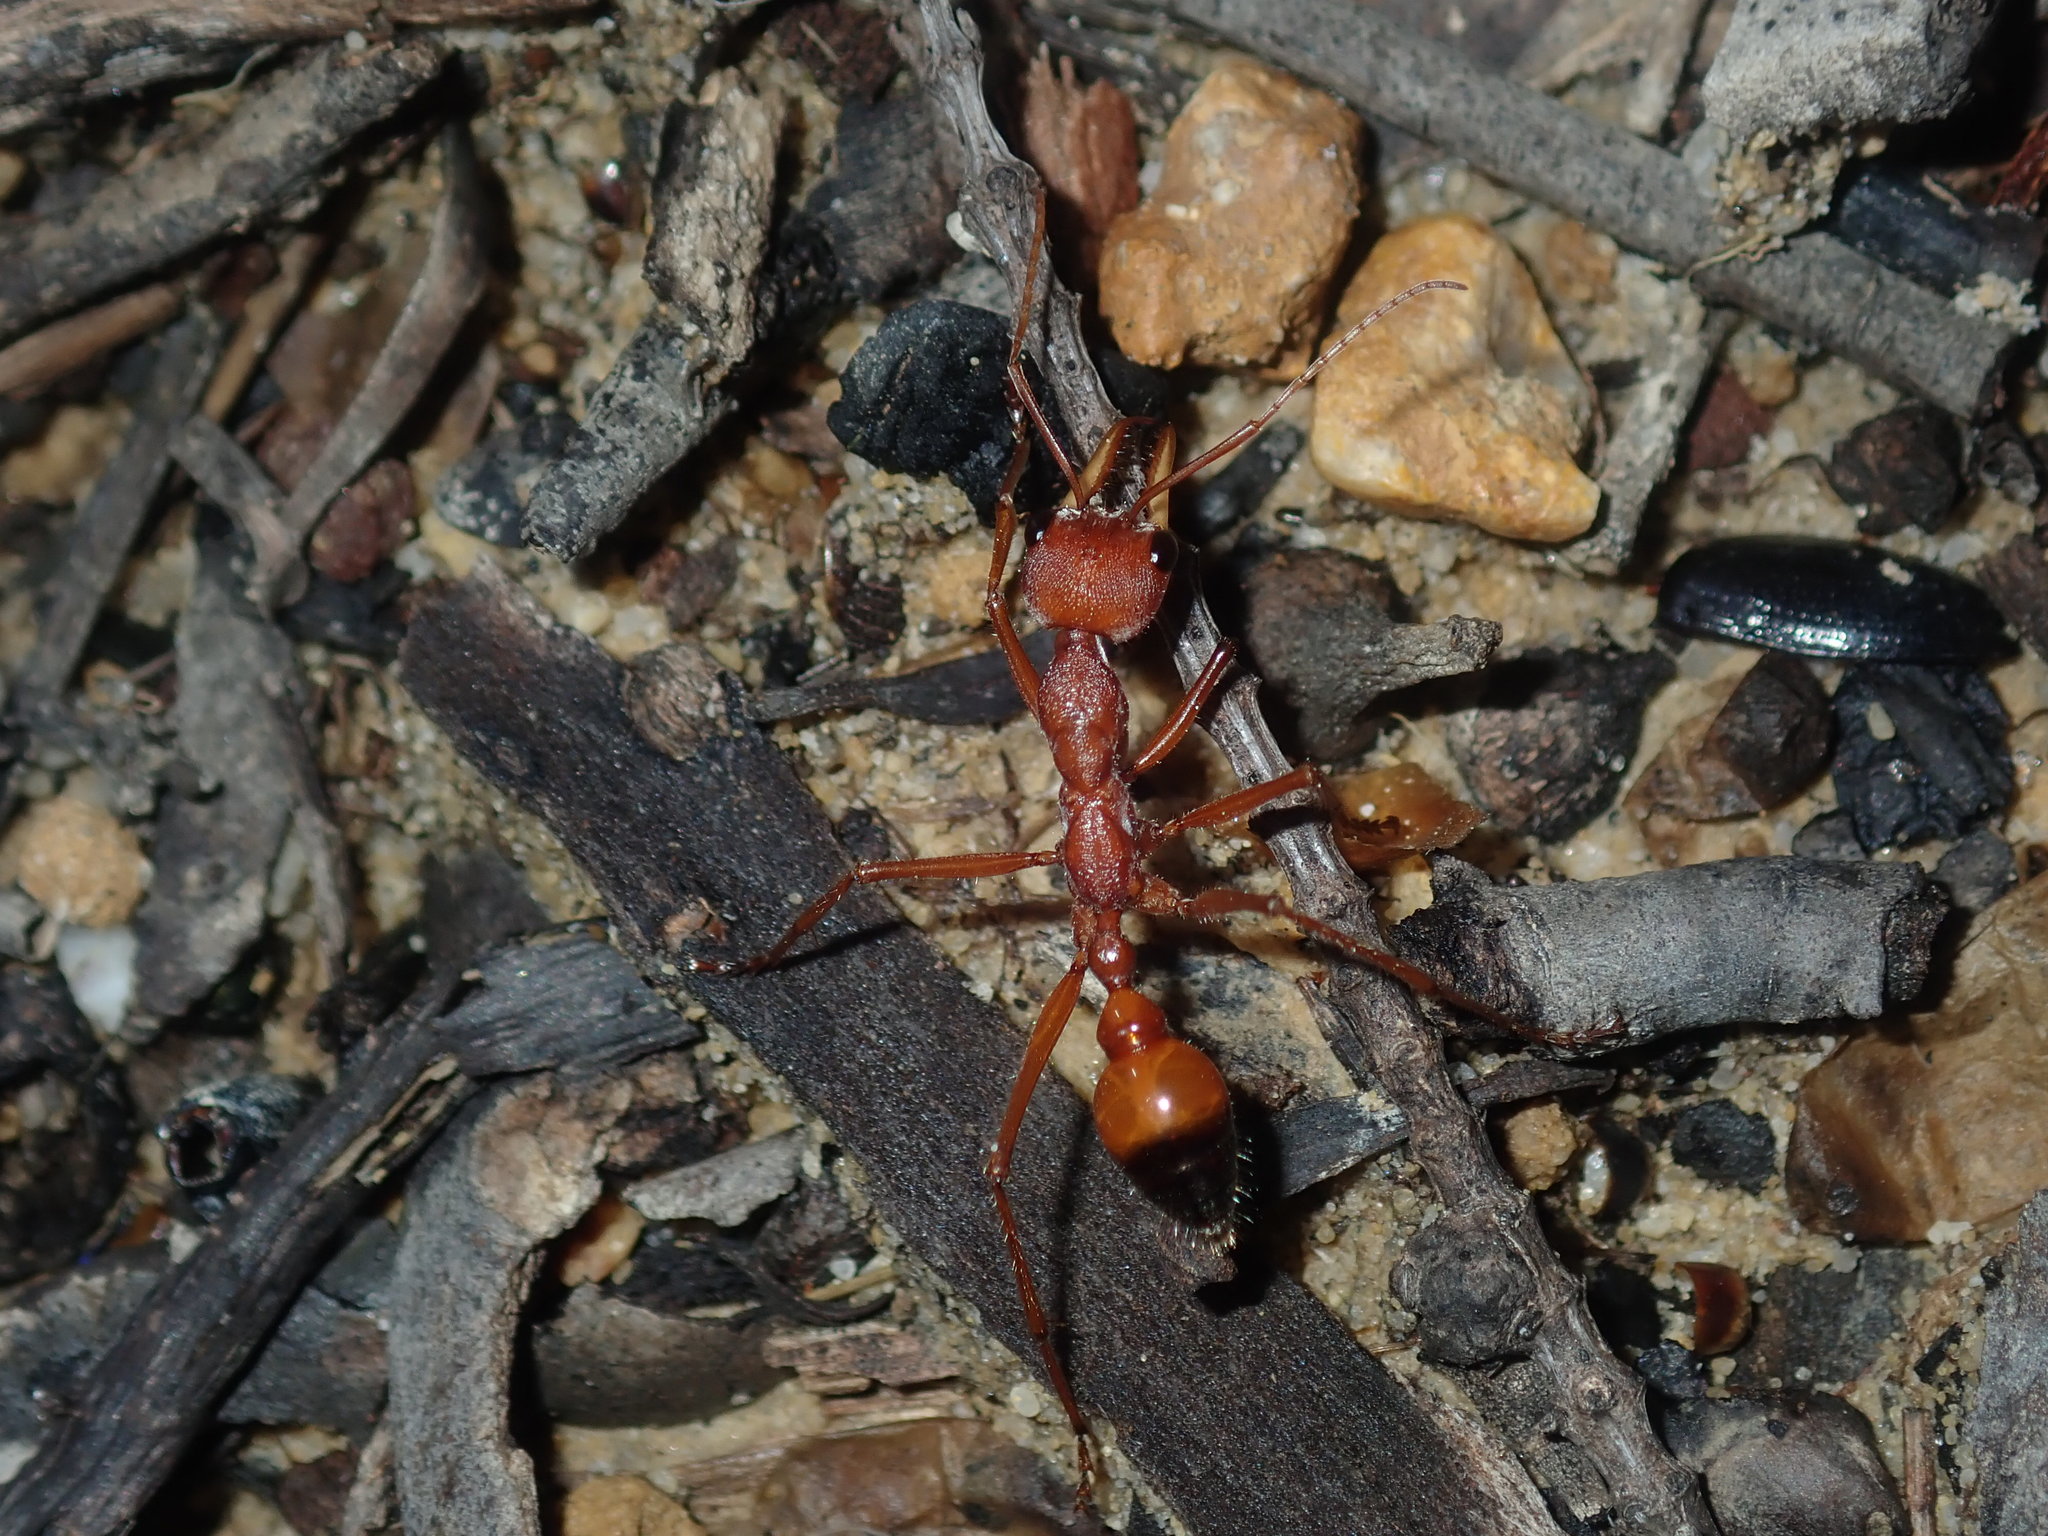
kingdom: Animalia
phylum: Arthropoda
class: Insecta
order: Hymenoptera
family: Formicidae
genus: Myrmecia
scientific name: Myrmecia gulosa
